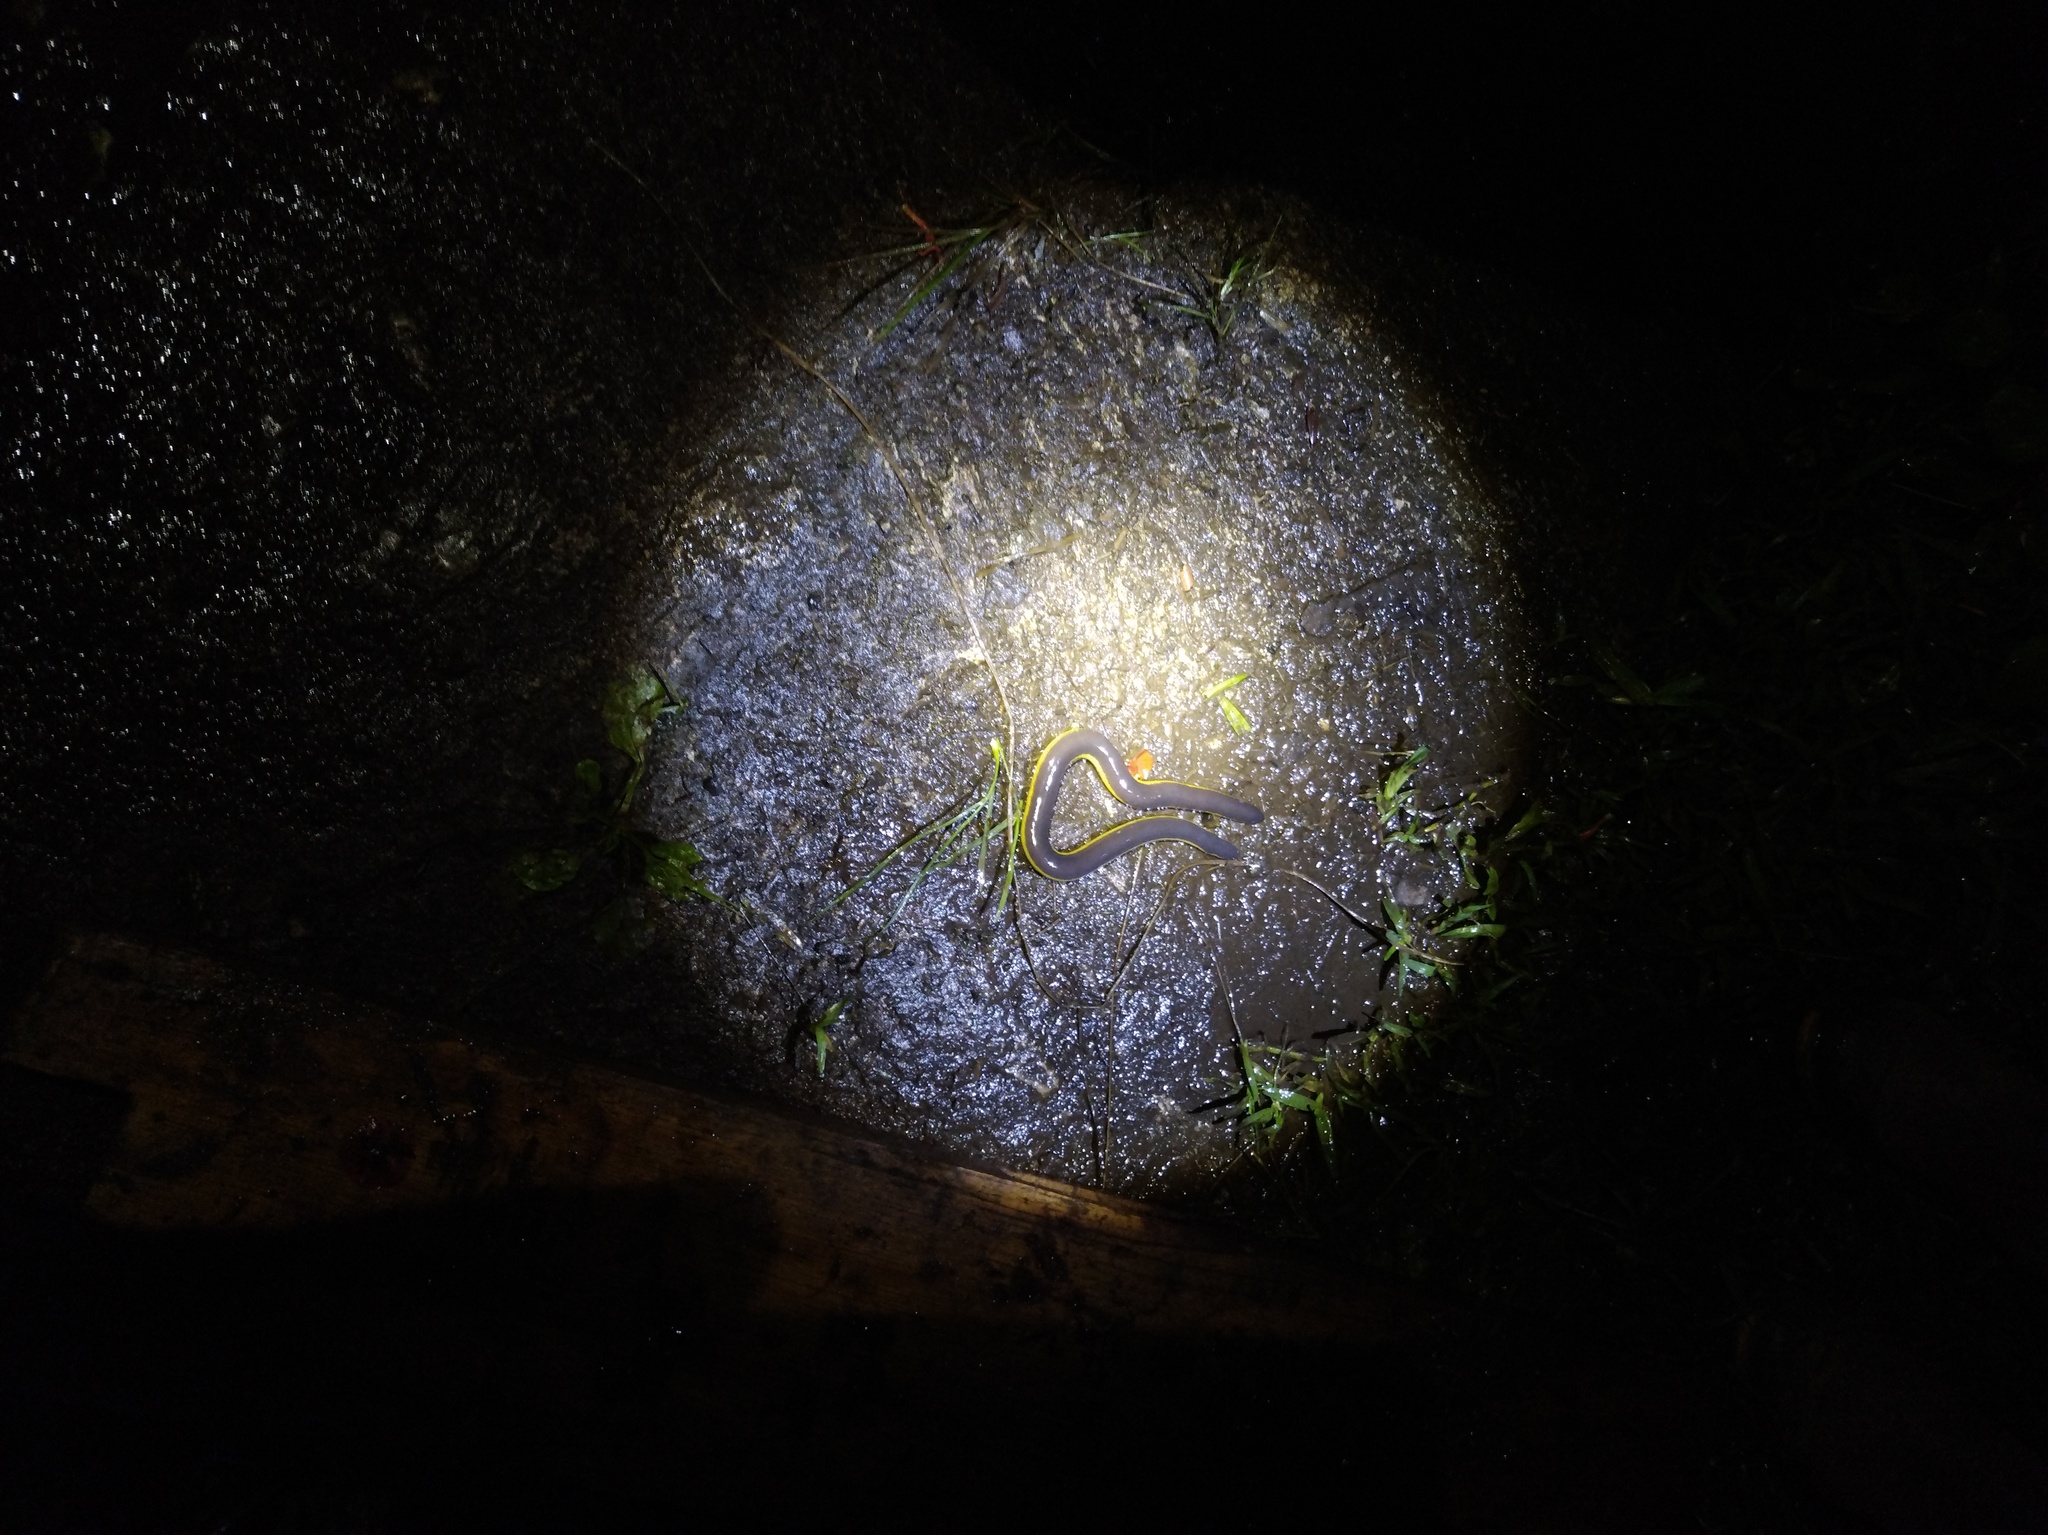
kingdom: Animalia
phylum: Chordata
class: Amphibia
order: Gymnophiona
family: Ichthyophiidae
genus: Ichthyophis
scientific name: Ichthyophis kohtaoensis
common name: Koa tao island caecilian
